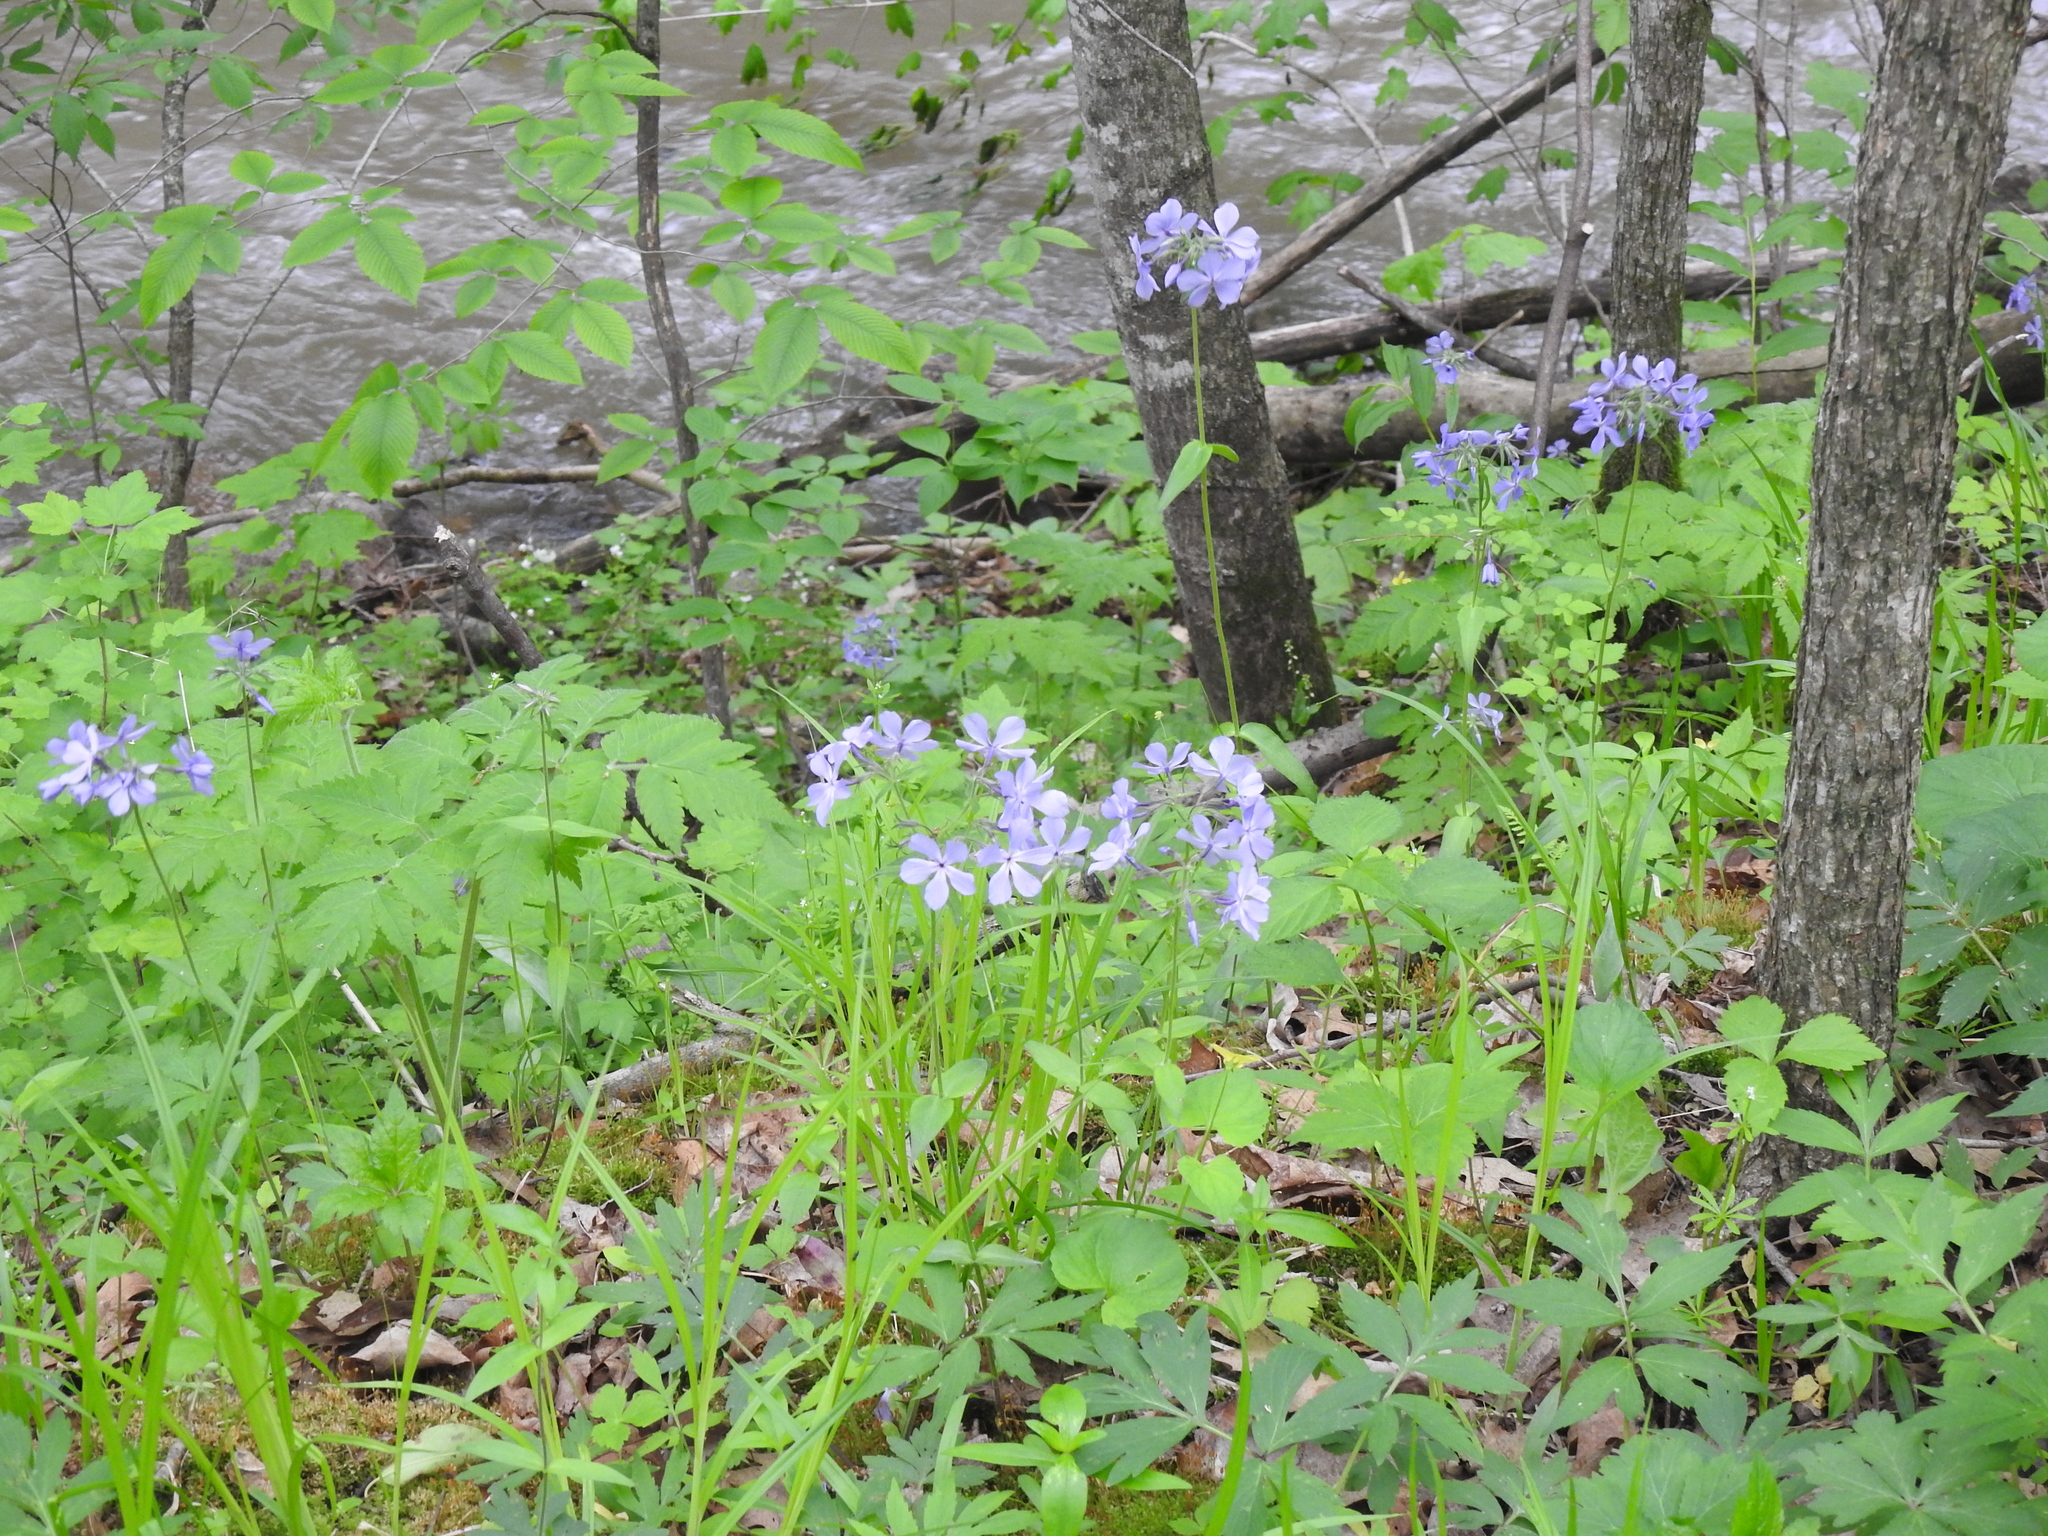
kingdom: Plantae
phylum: Tracheophyta
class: Magnoliopsida
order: Ericales
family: Polemoniaceae
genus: Phlox
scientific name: Phlox divaricata
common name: Blue phlox
